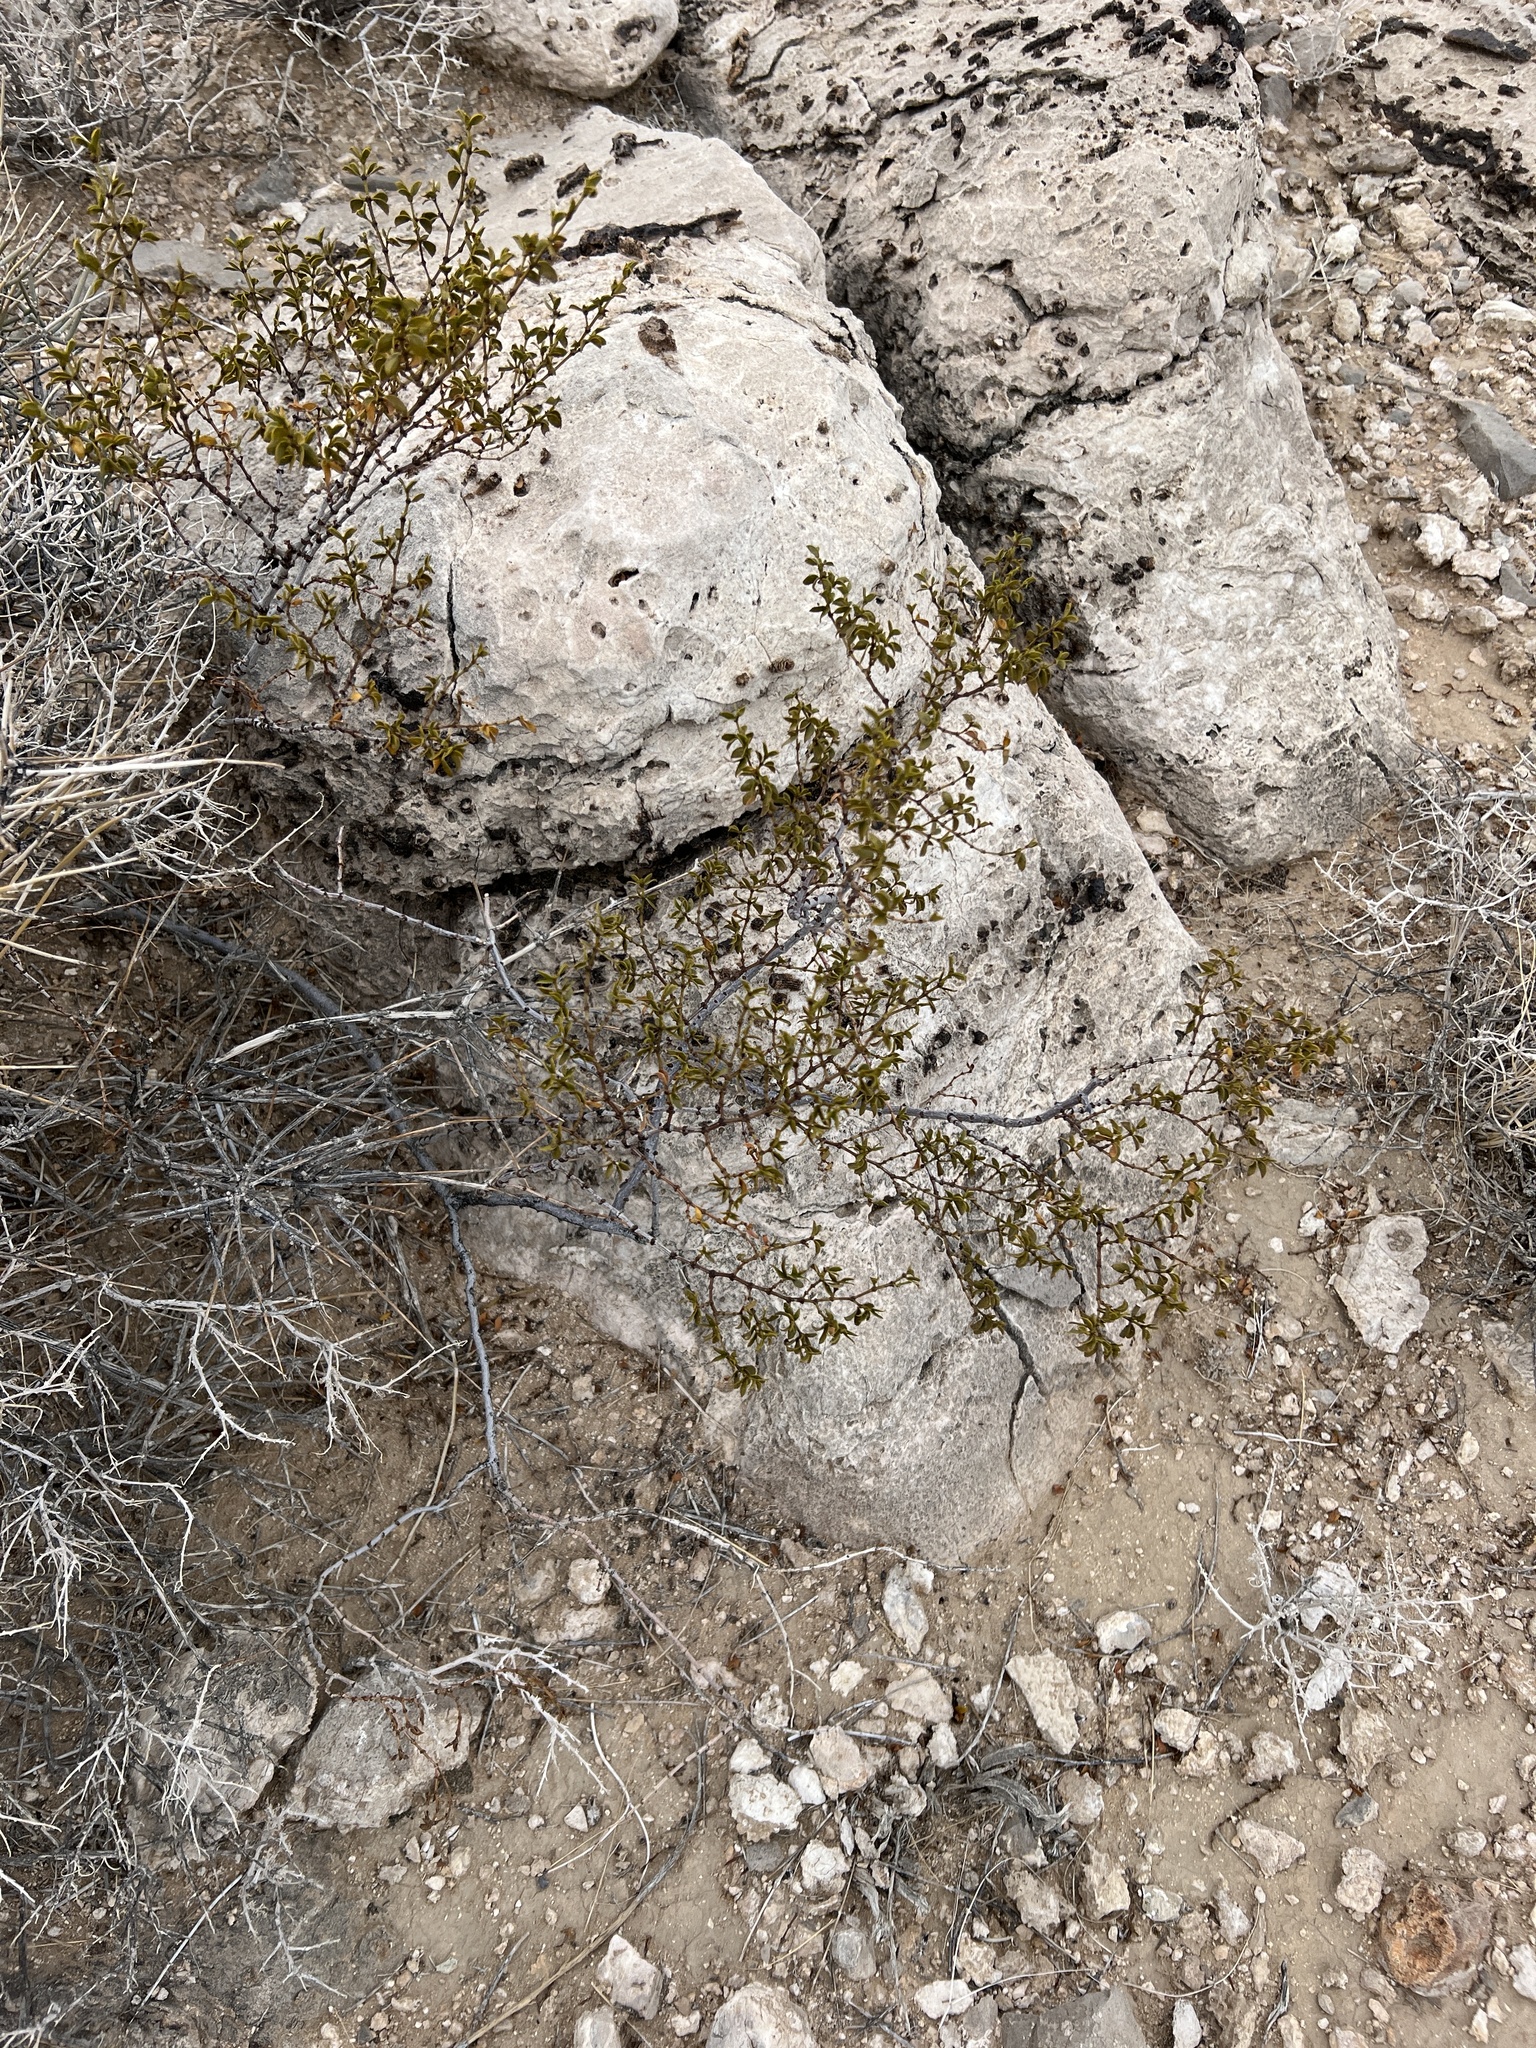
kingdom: Plantae
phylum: Tracheophyta
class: Magnoliopsida
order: Zygophyllales
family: Zygophyllaceae
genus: Larrea
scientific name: Larrea tridentata
